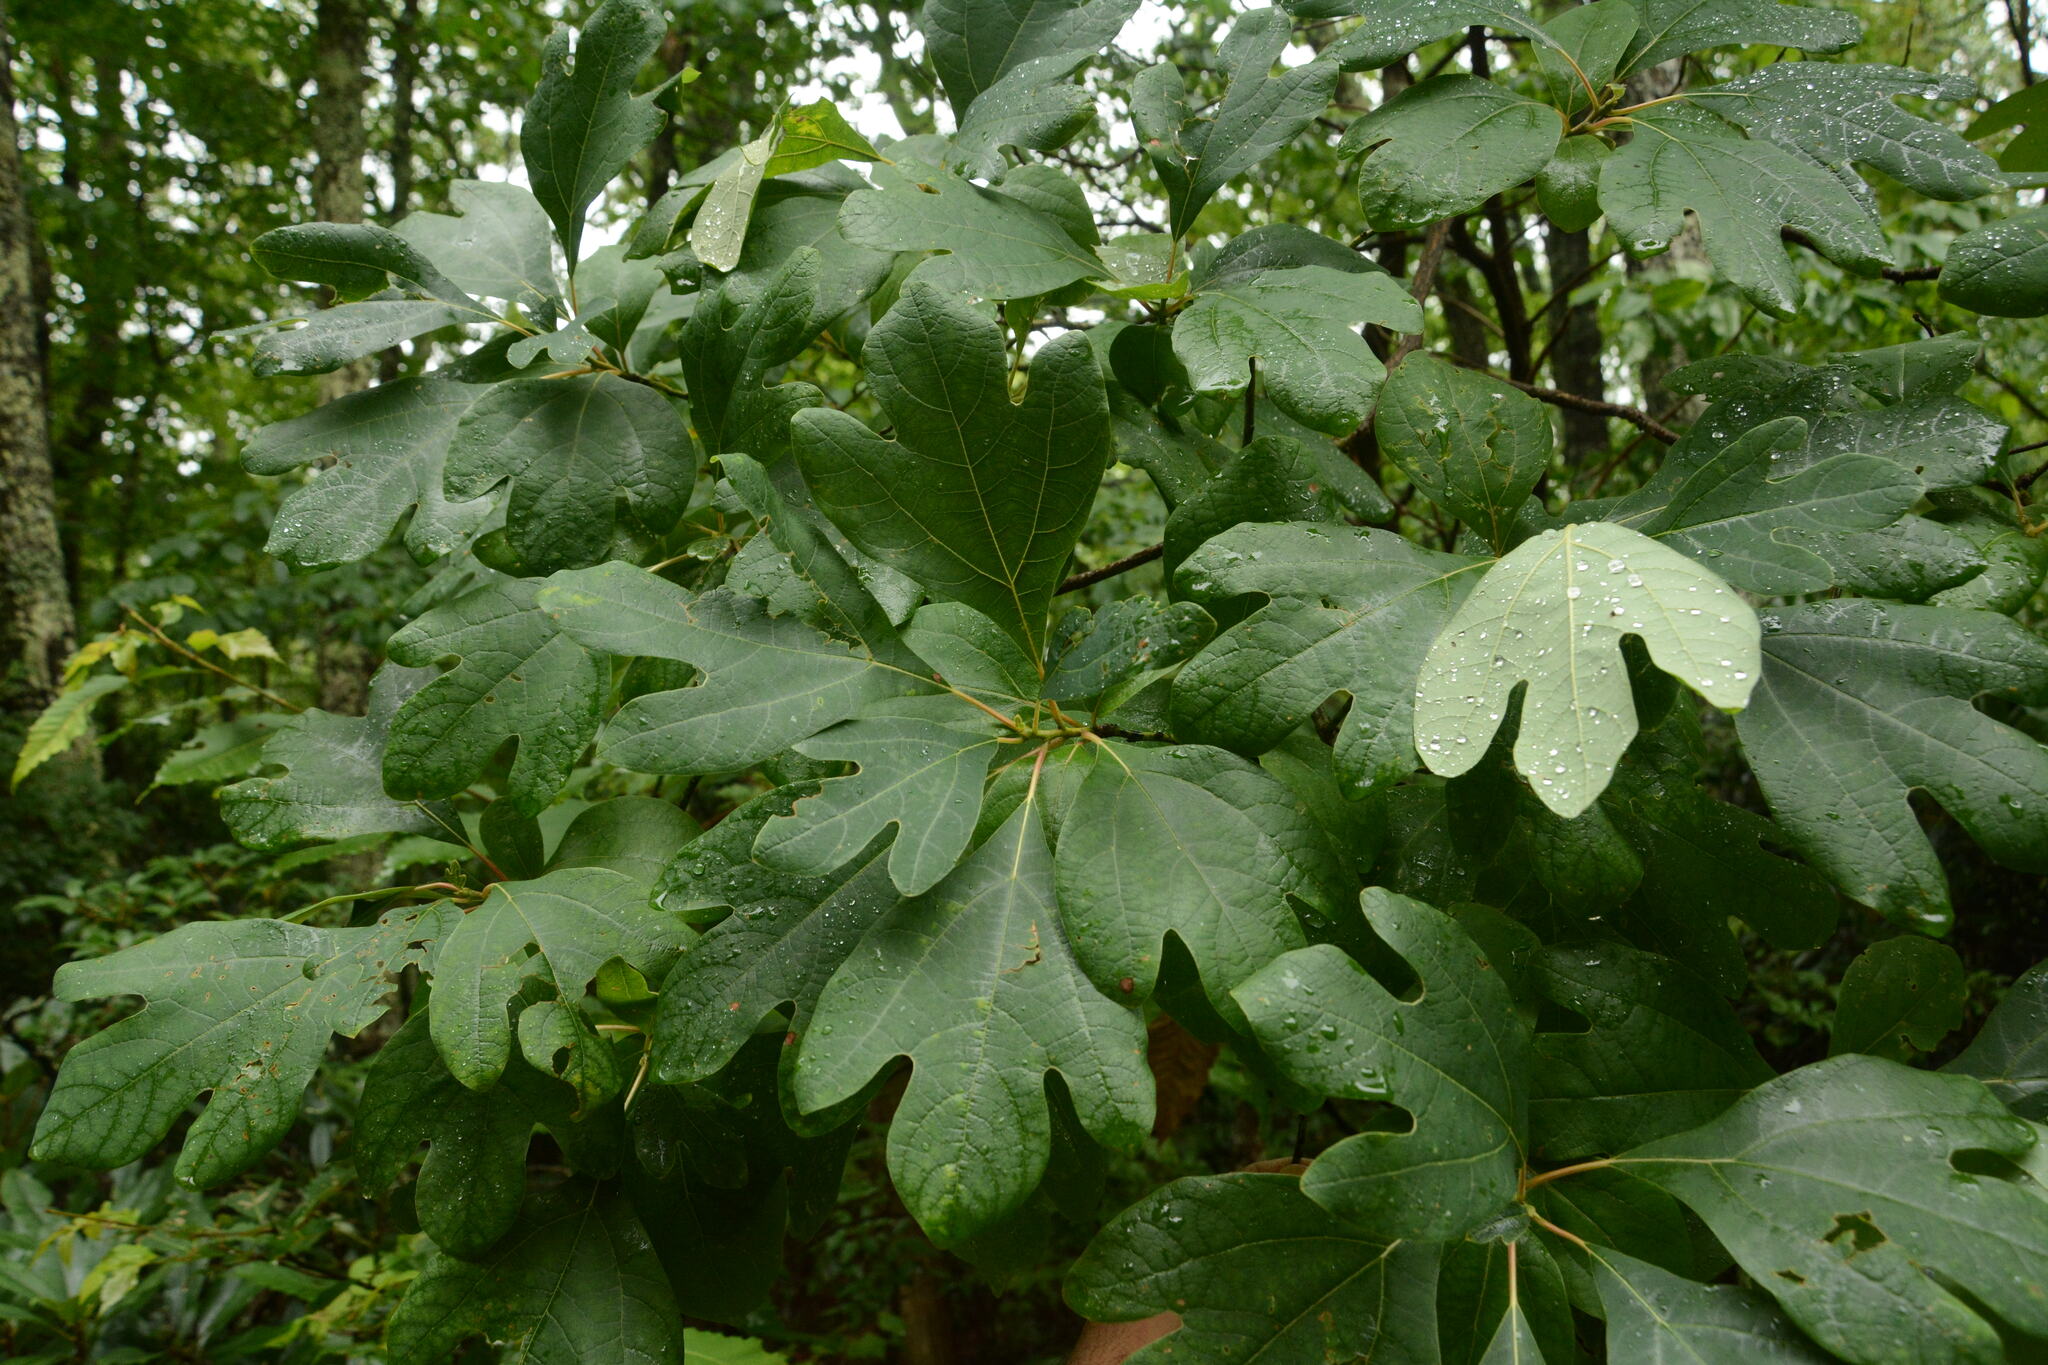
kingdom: Plantae
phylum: Tracheophyta
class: Magnoliopsida
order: Laurales
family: Lauraceae
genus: Sassafras
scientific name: Sassafras albidum
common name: Sassafras
